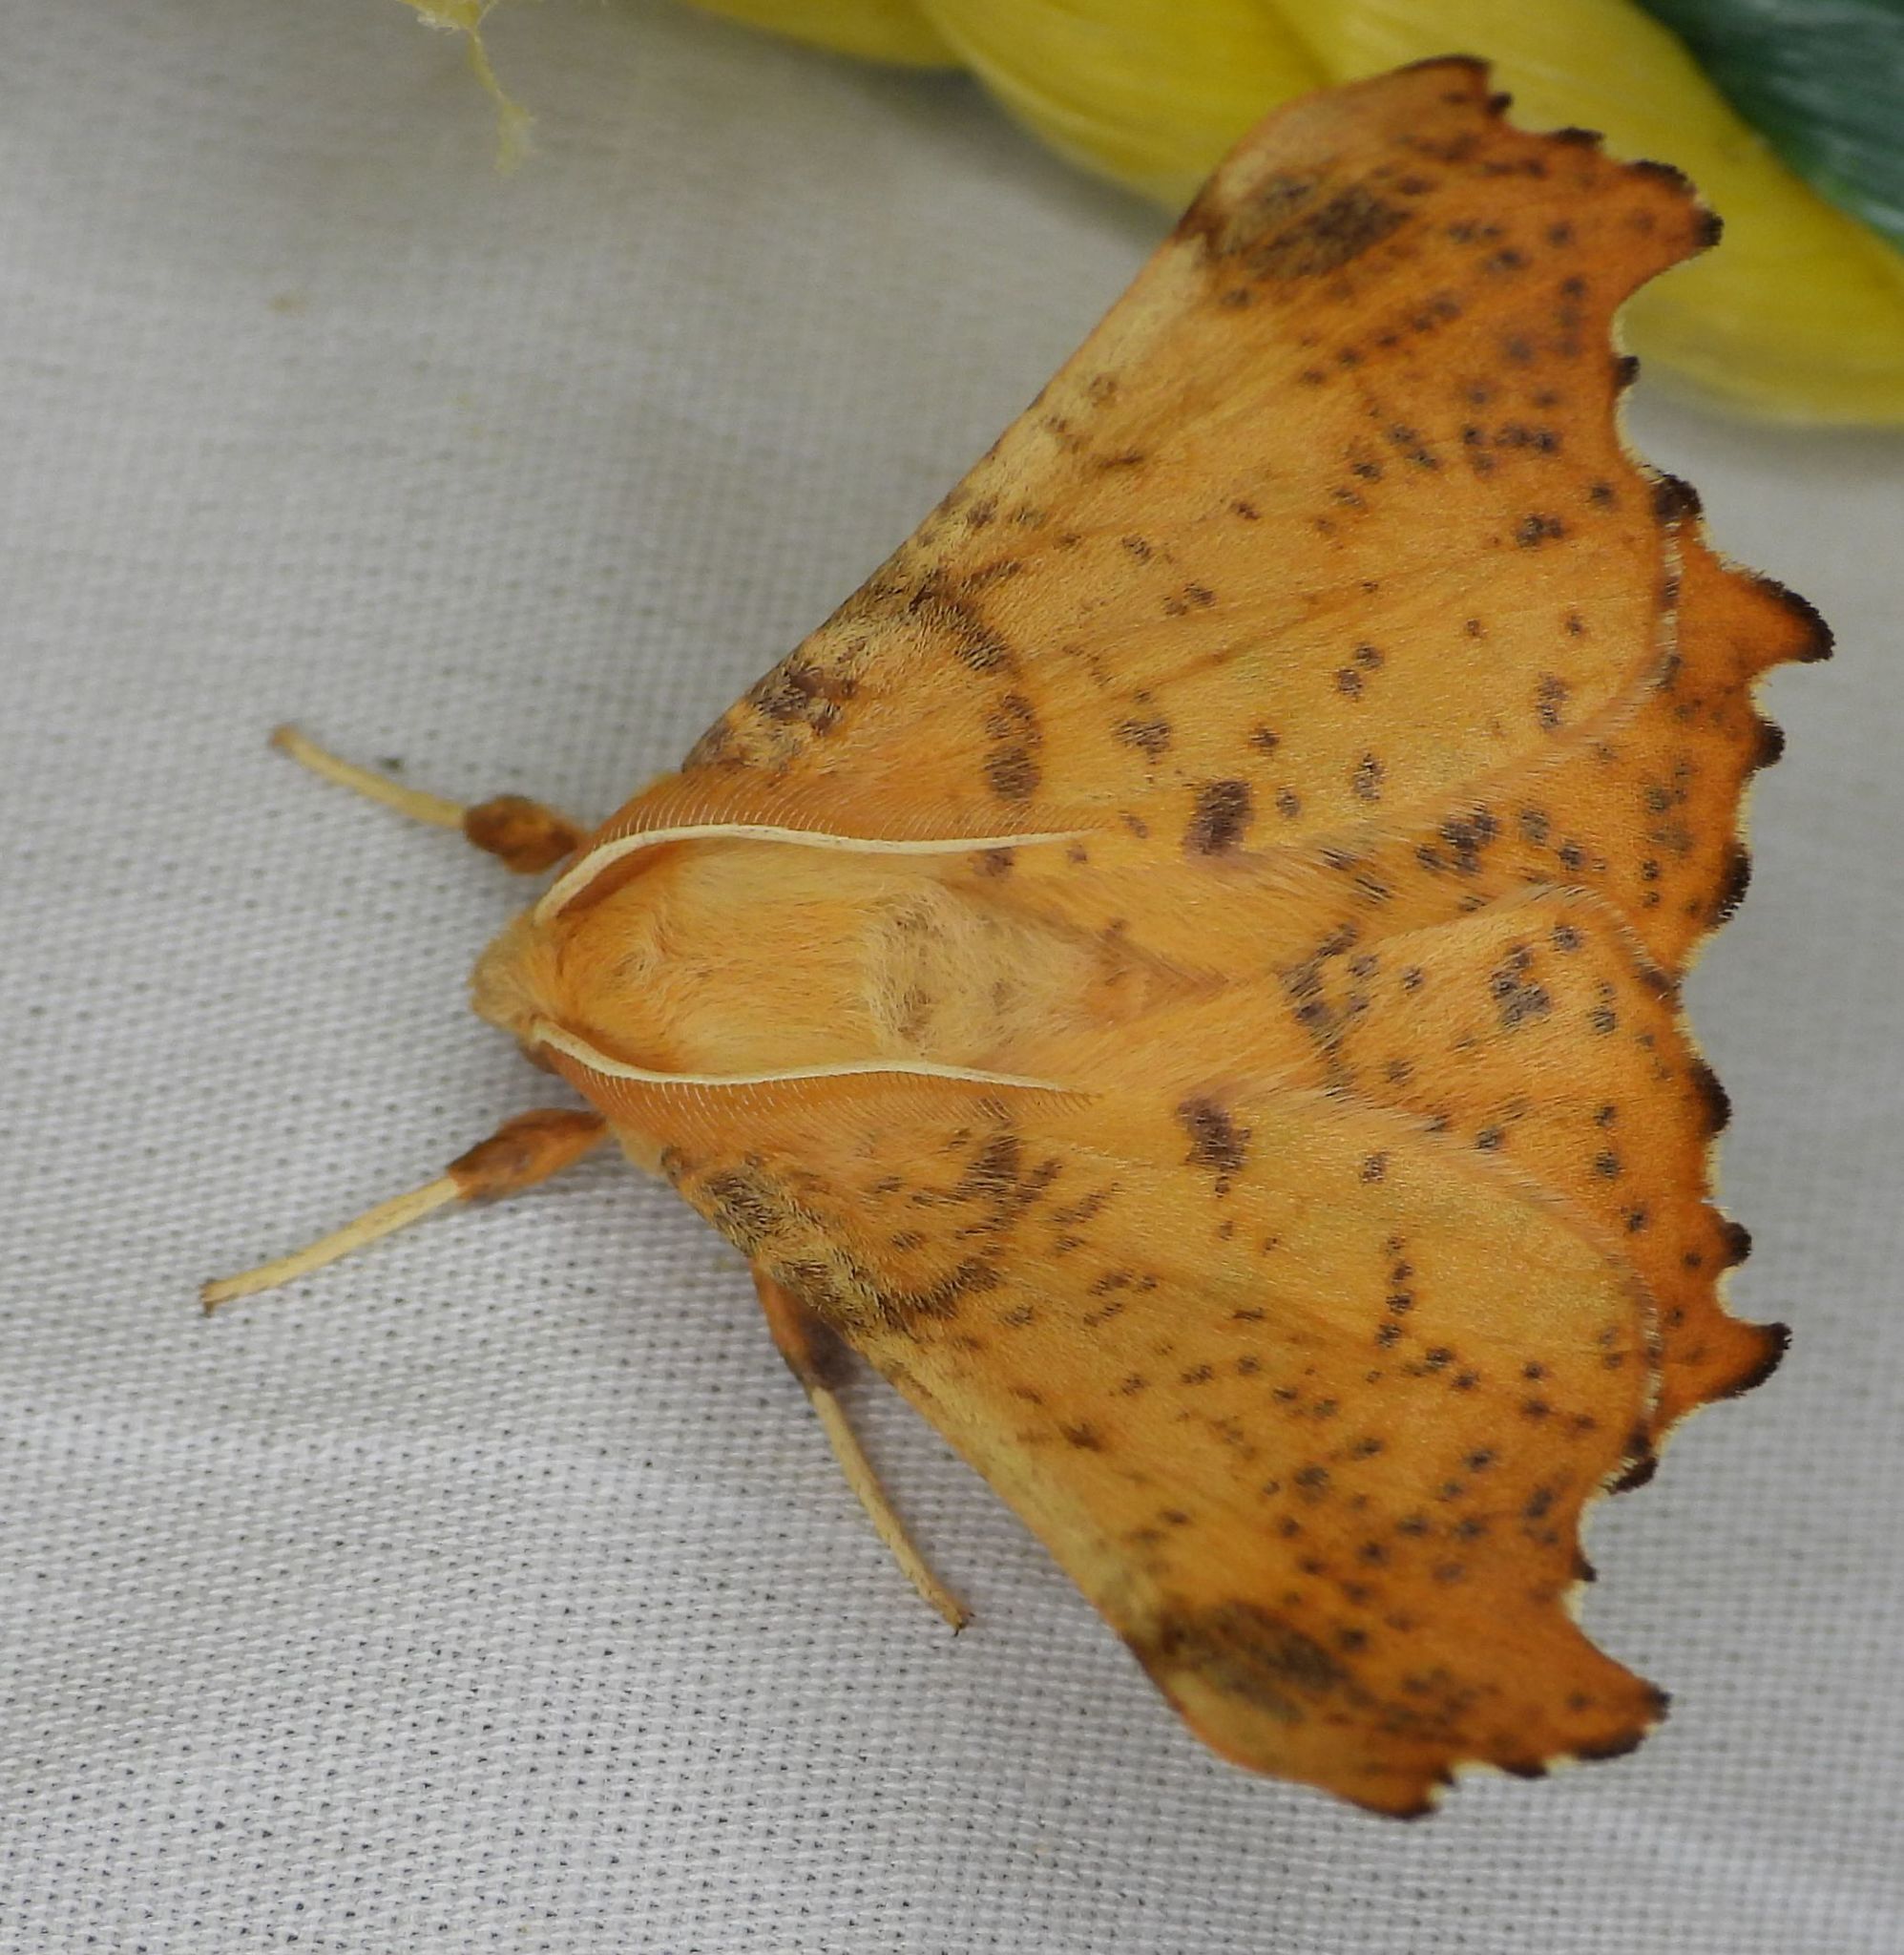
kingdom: Animalia
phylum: Arthropoda
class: Insecta
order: Lepidoptera
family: Geometridae
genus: Ennomos
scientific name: Ennomos magnaria
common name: Maple spanworm
